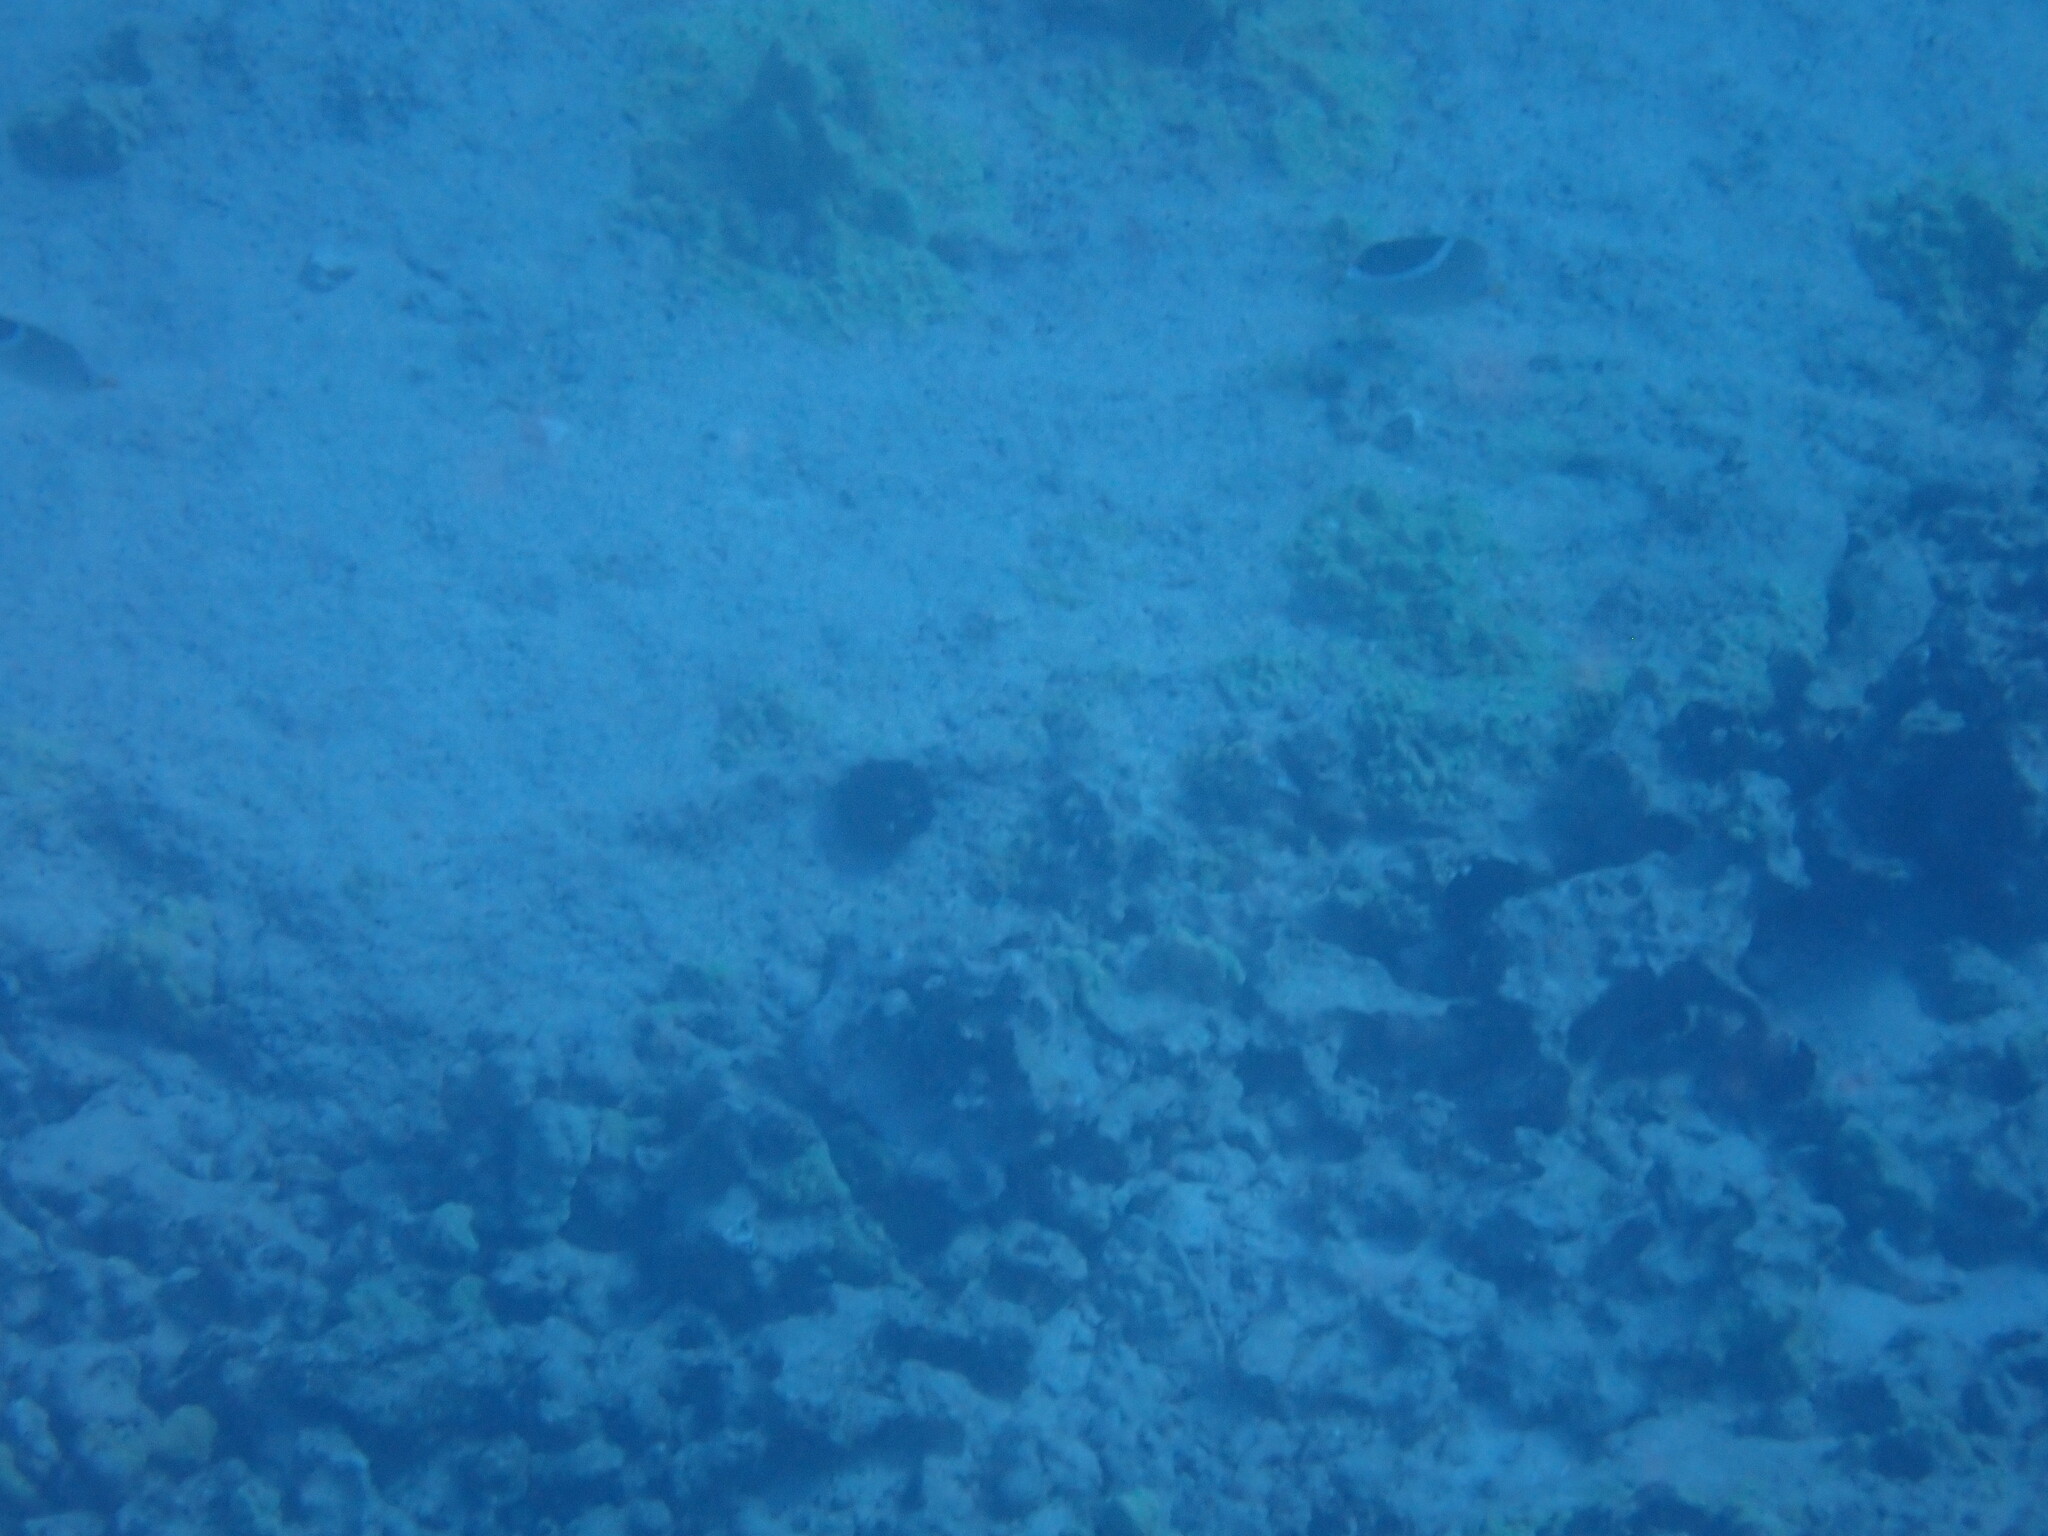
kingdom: Animalia
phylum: Chordata
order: Perciformes
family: Chaetodontidae
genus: Chaetodon
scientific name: Chaetodon ephippium
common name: Saddled butterflyfish
